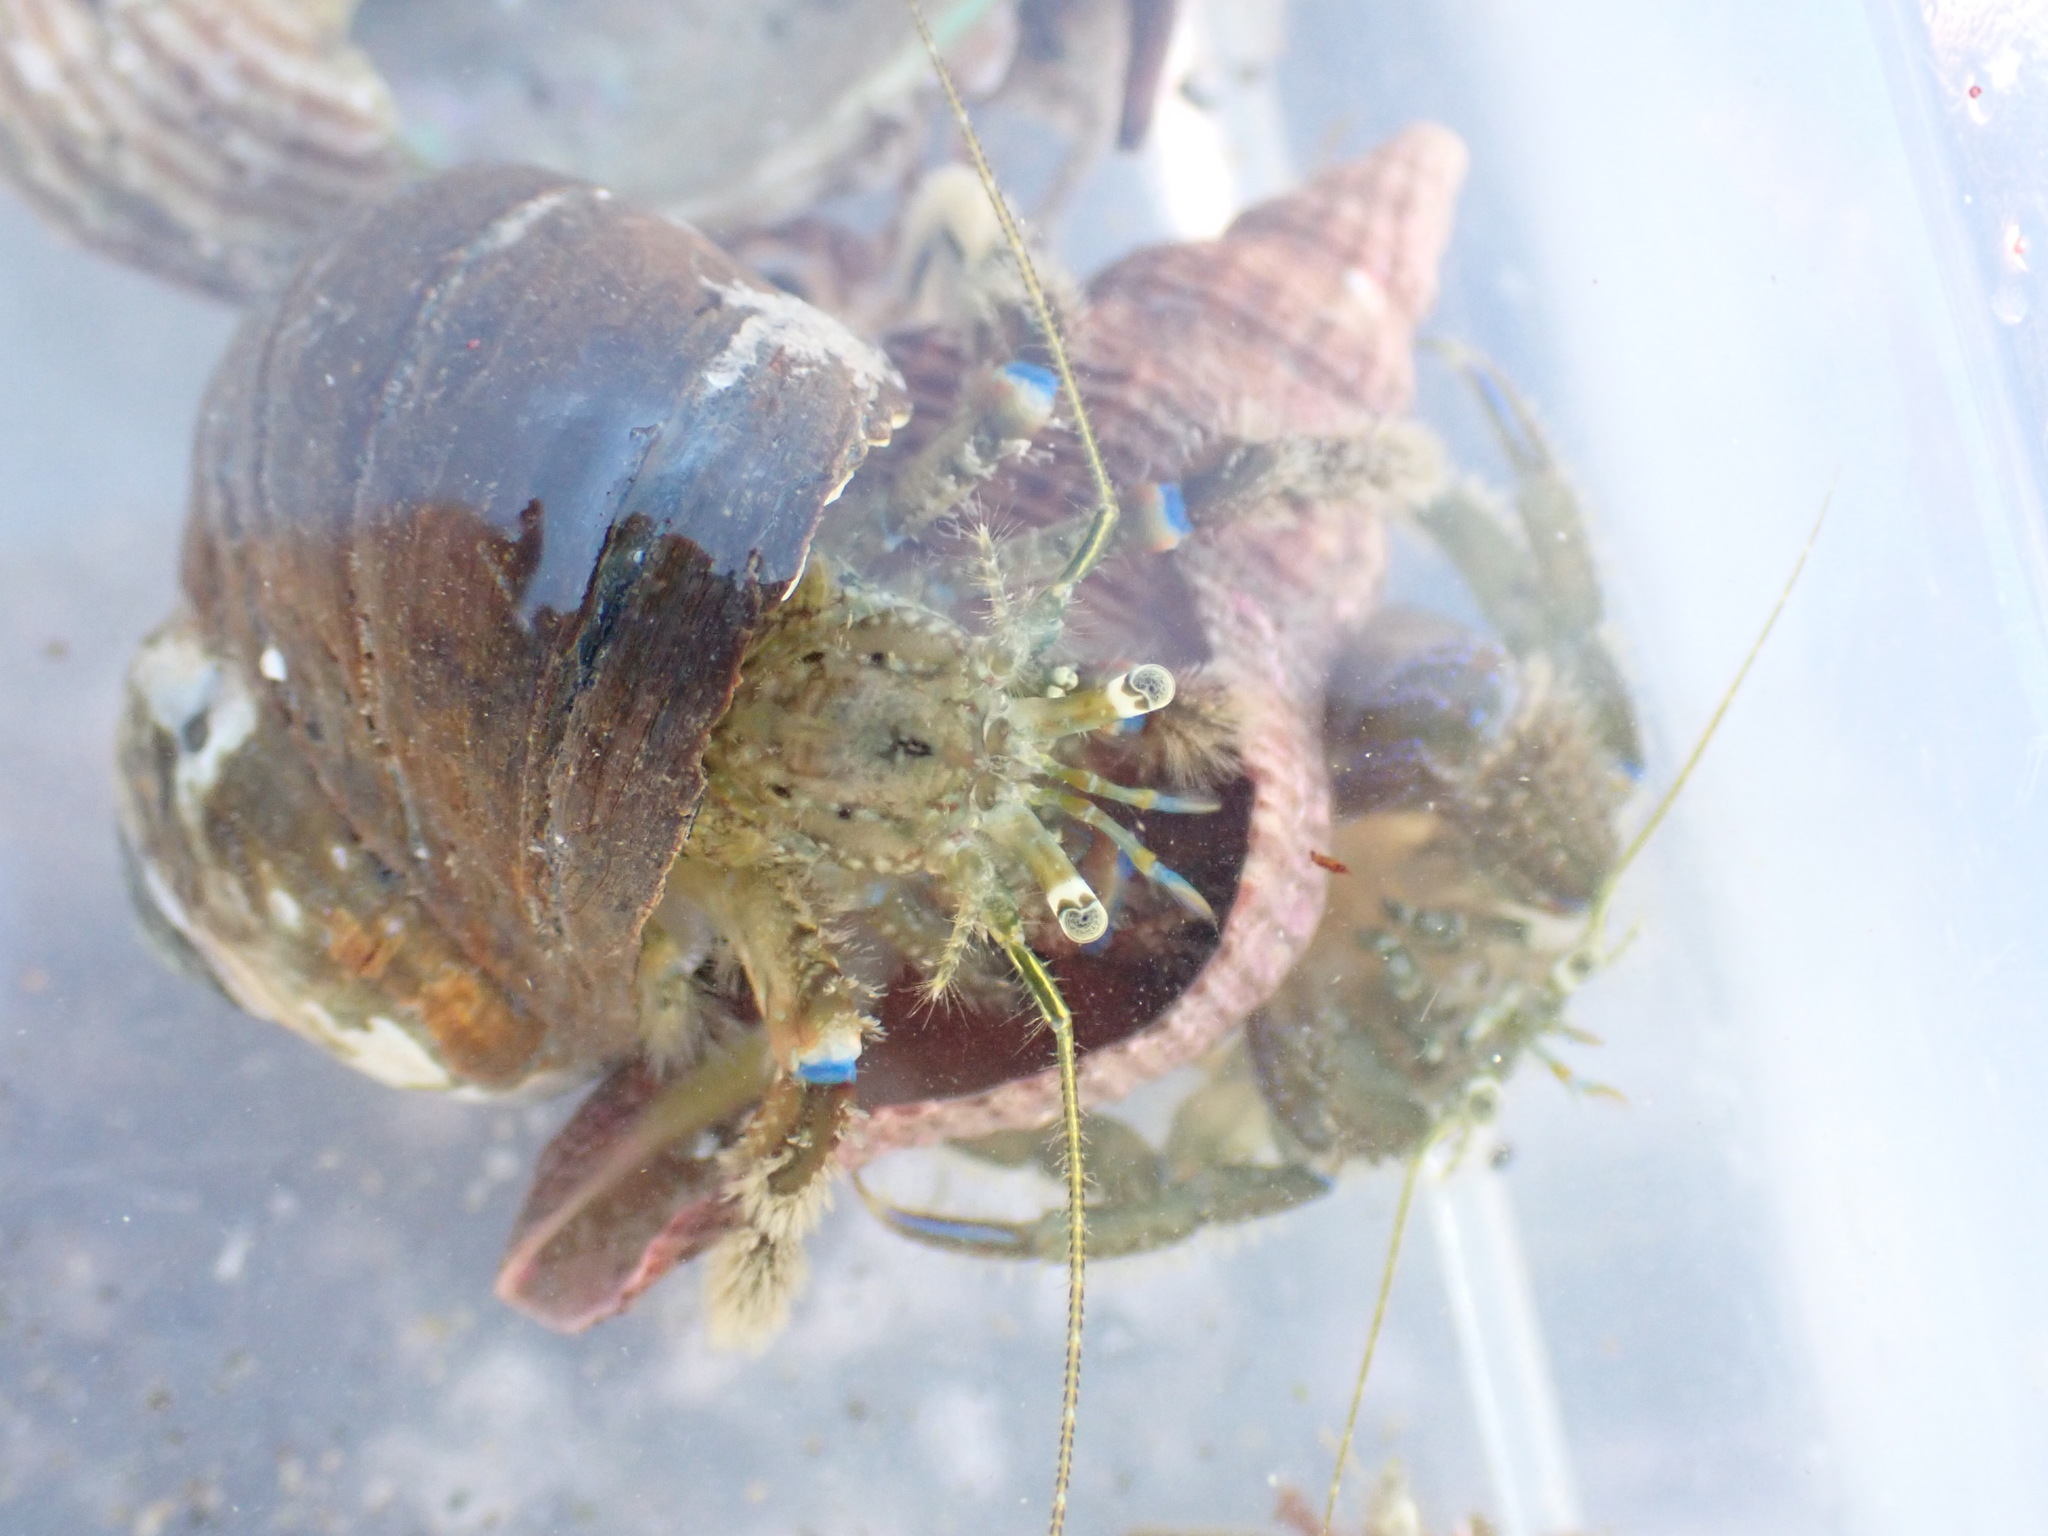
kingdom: Animalia
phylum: Arthropoda
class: Malacostraca
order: Decapoda
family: Paguridae
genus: Pagurus
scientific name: Pagurus novizealandiae
